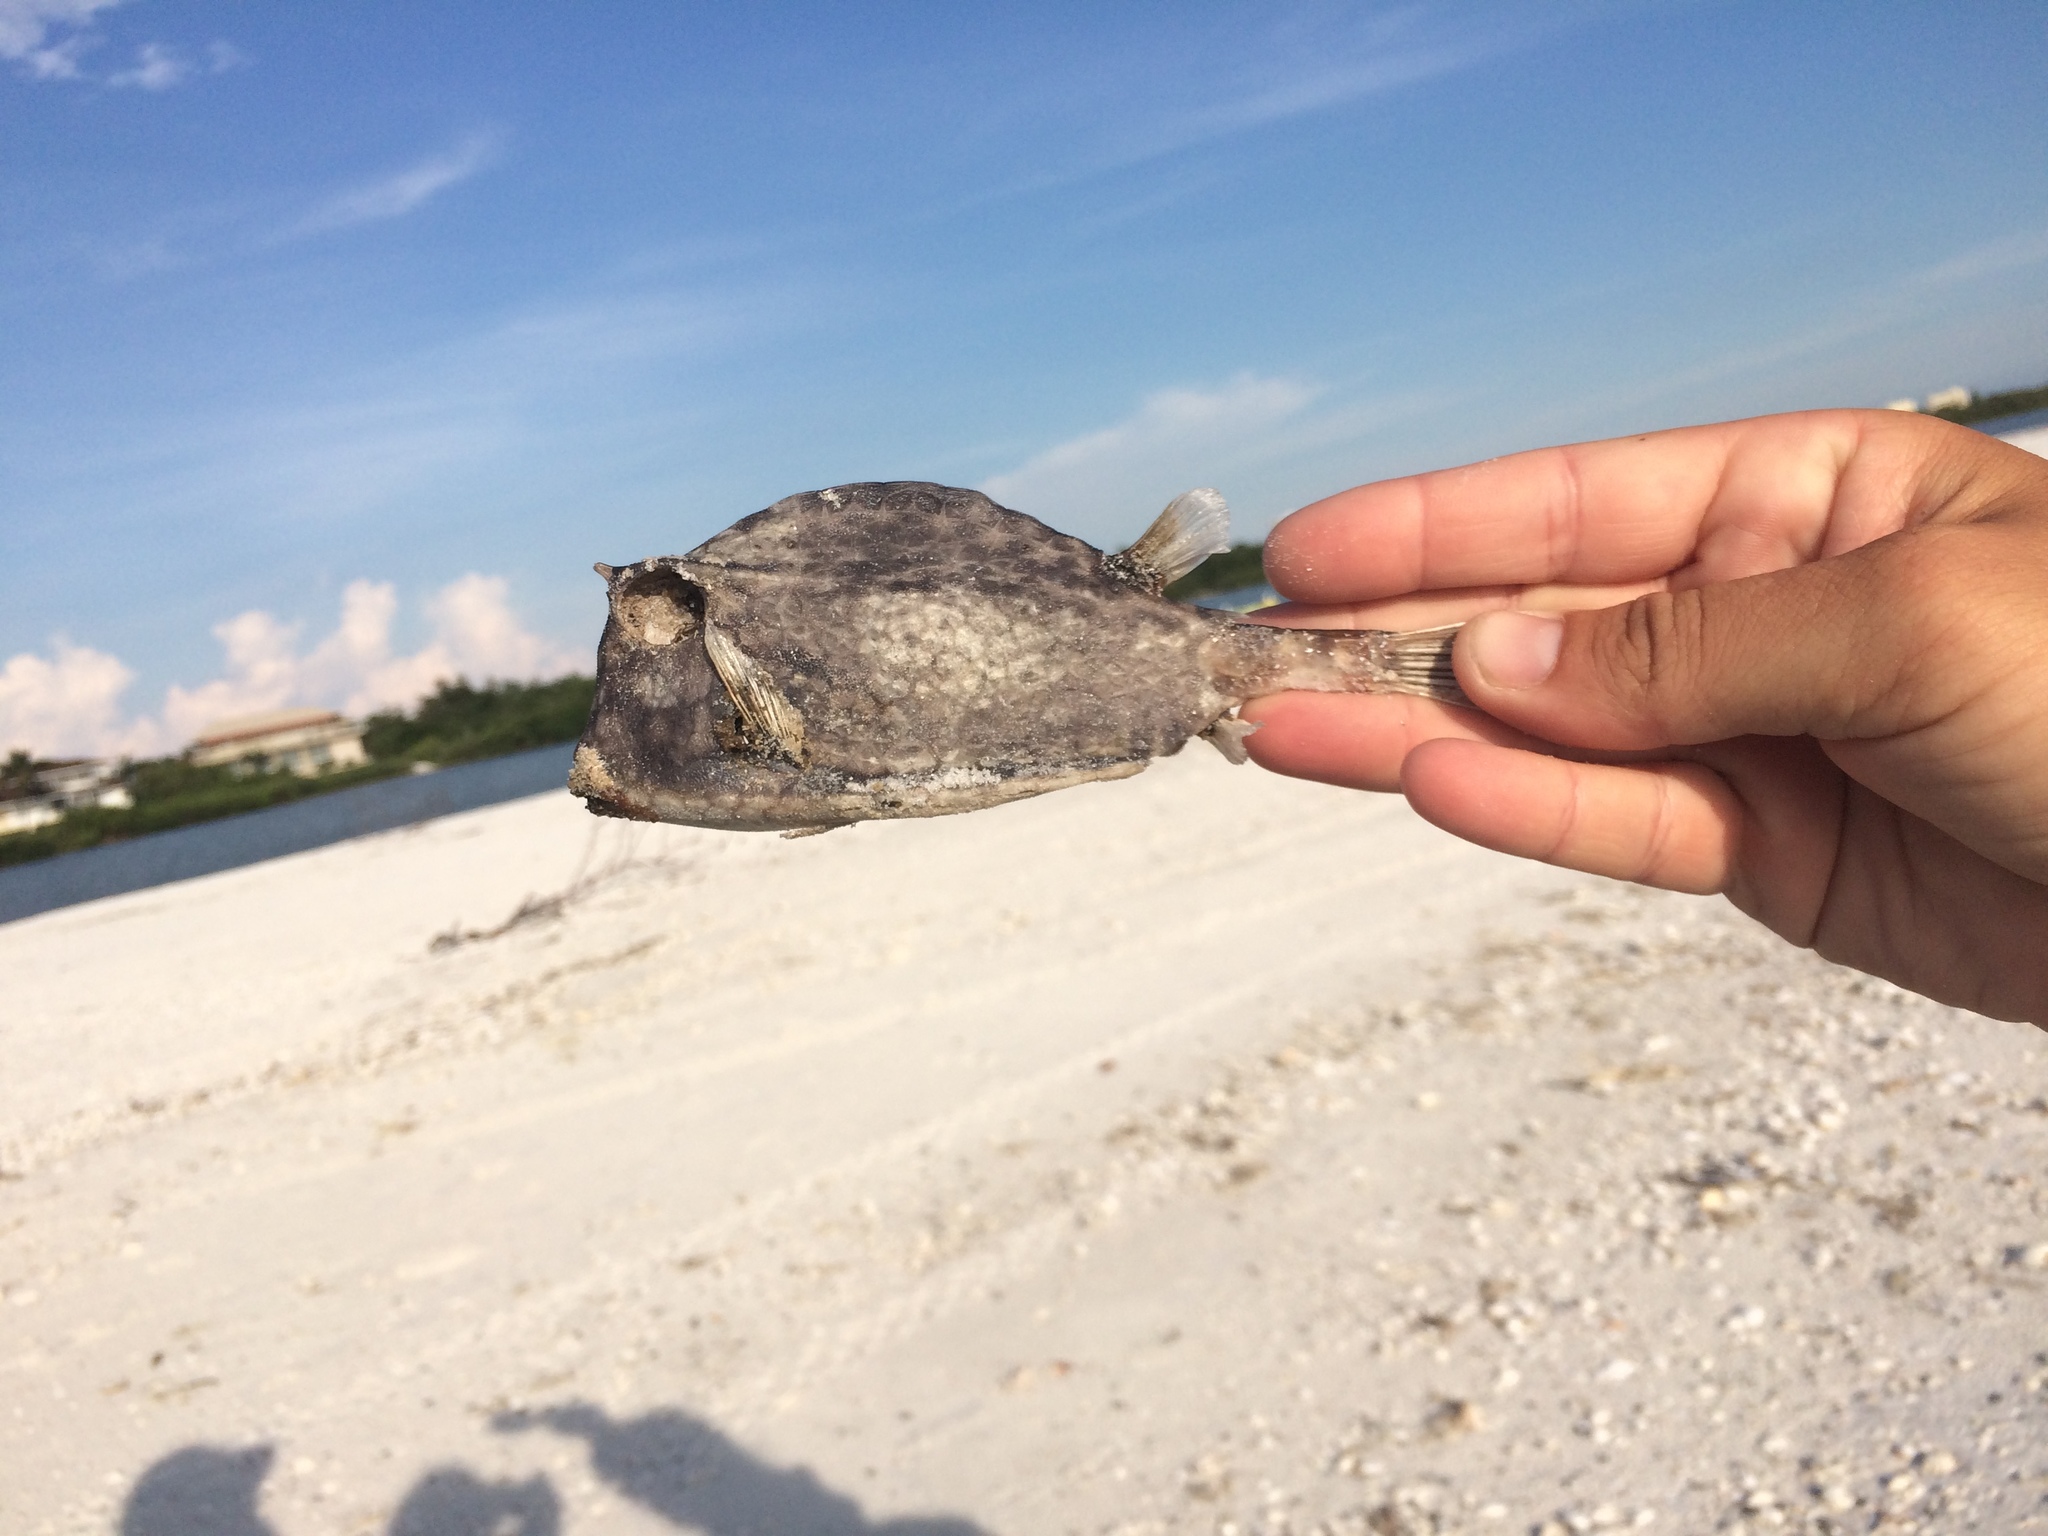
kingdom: Animalia
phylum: Chordata
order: Tetraodontiformes
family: Ostraciidae
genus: Acanthostracion
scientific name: Acanthostracion quadricornis
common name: Scrawled cowfish
